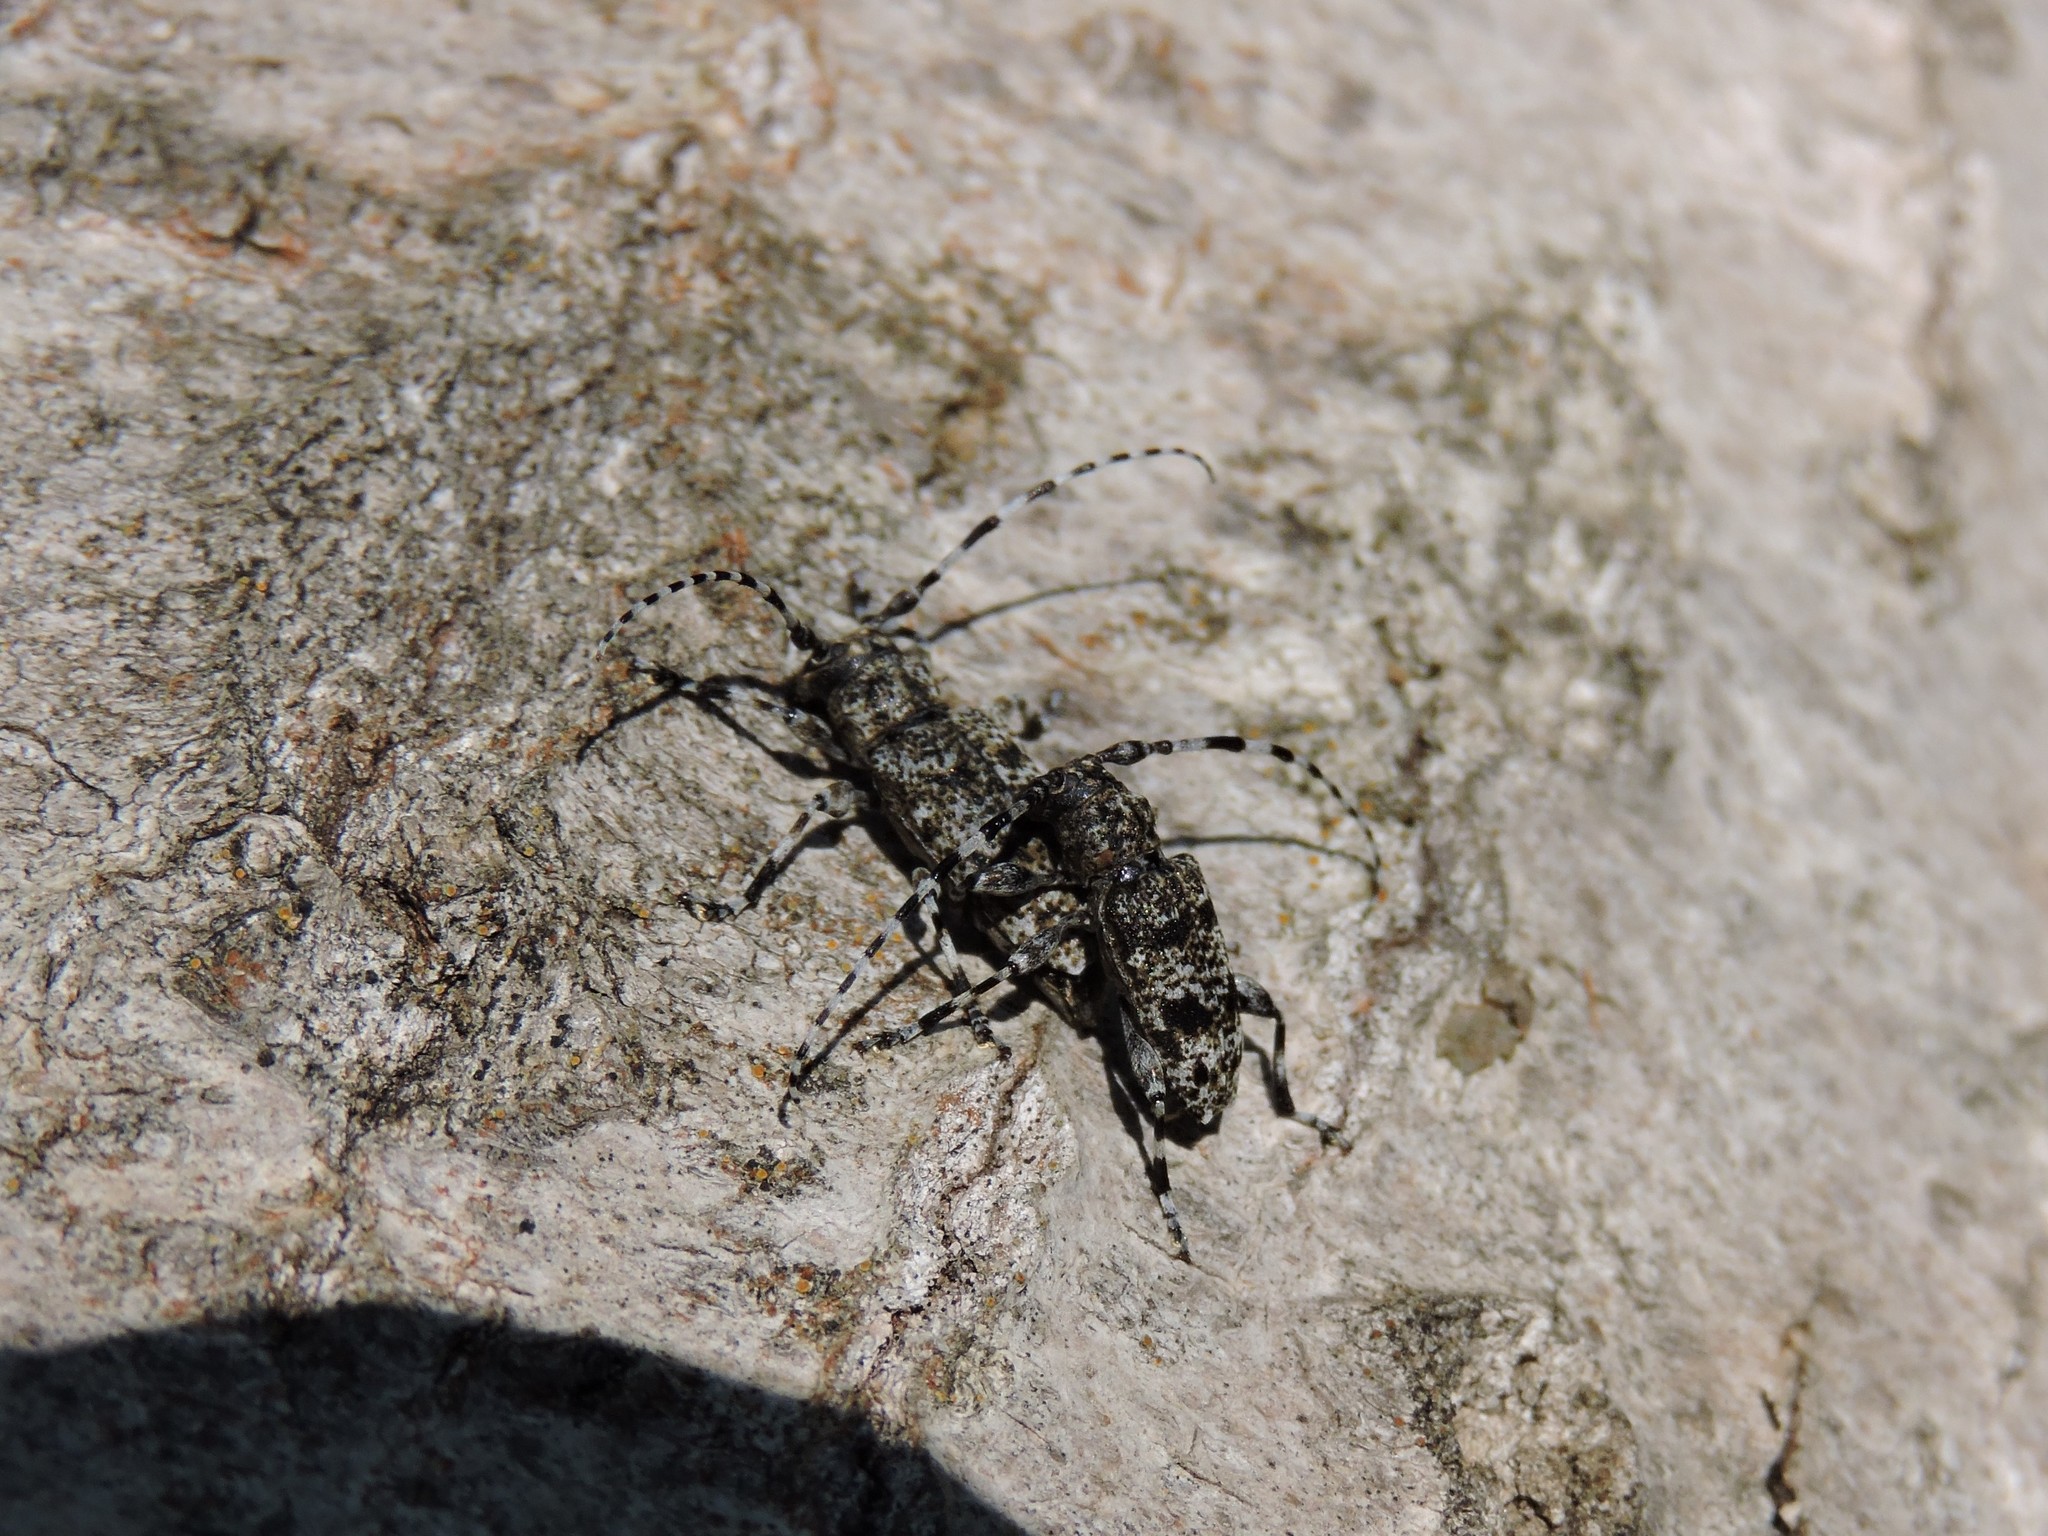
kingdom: Animalia
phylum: Arthropoda
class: Insecta
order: Coleoptera
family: Cerambycidae
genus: Aegomorphus
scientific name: Aegomorphus clavipes
